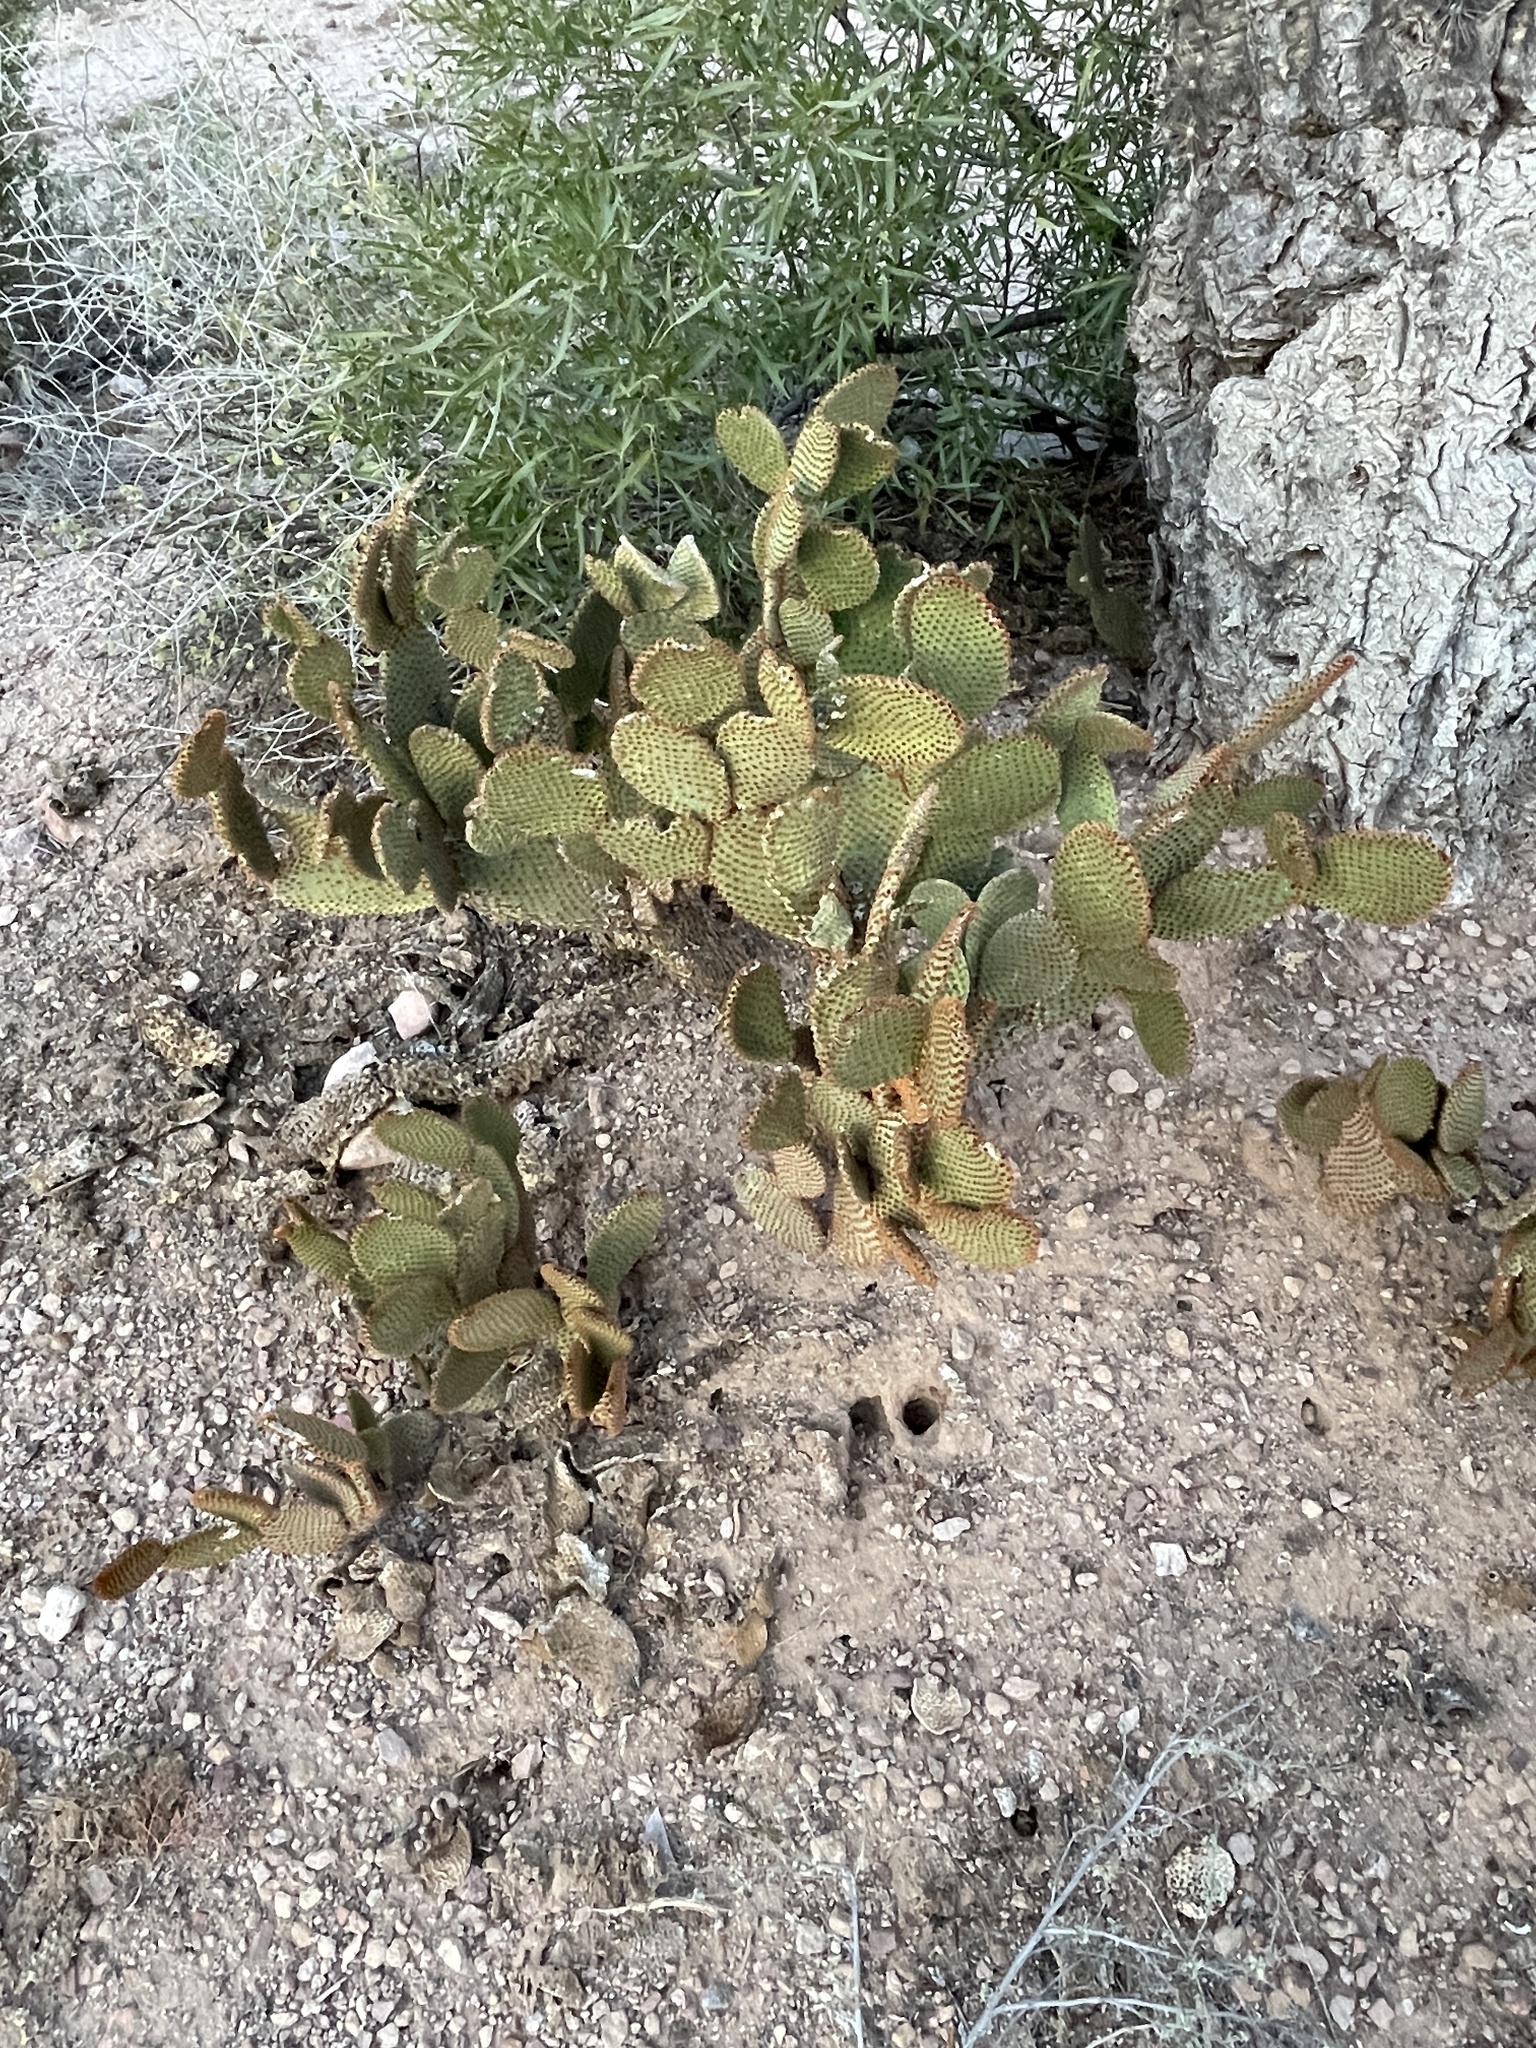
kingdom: Plantae
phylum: Tracheophyta
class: Magnoliopsida
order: Caryophyllales
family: Cactaceae
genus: Opuntia
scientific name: Opuntia microdasys
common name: Angel's-wings
